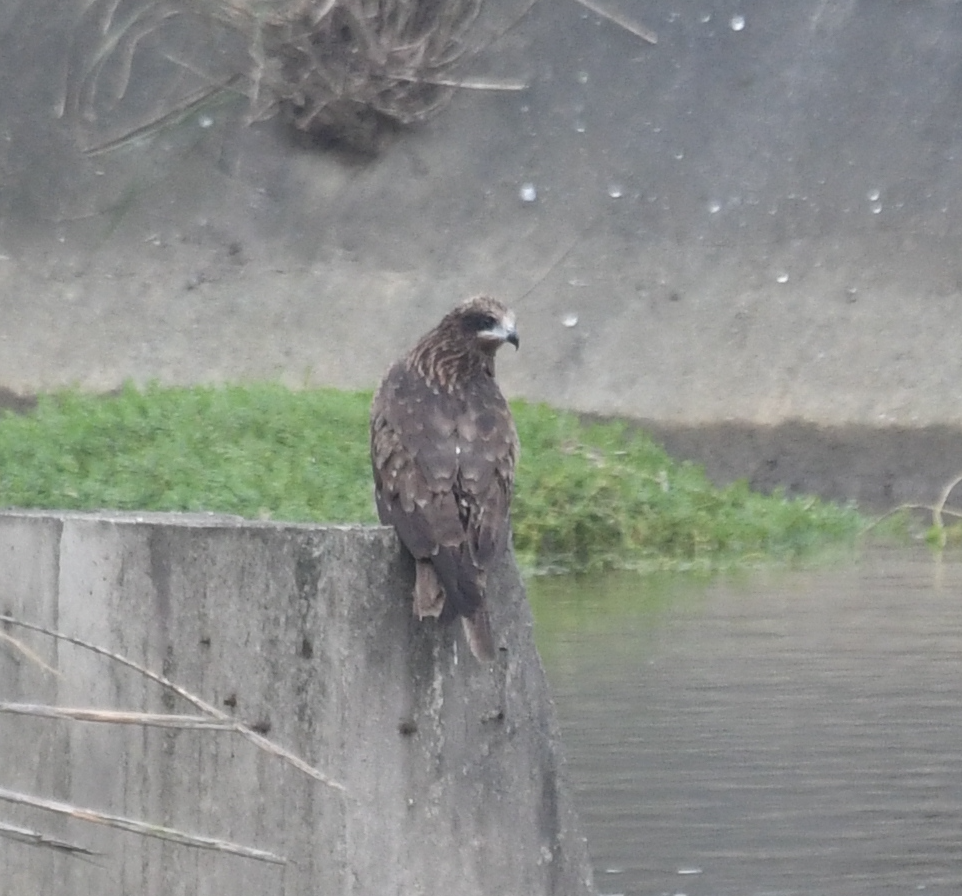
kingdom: Animalia
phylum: Chordata
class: Aves
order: Accipitriformes
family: Accipitridae
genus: Milvus
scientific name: Milvus migrans
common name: Black kite
